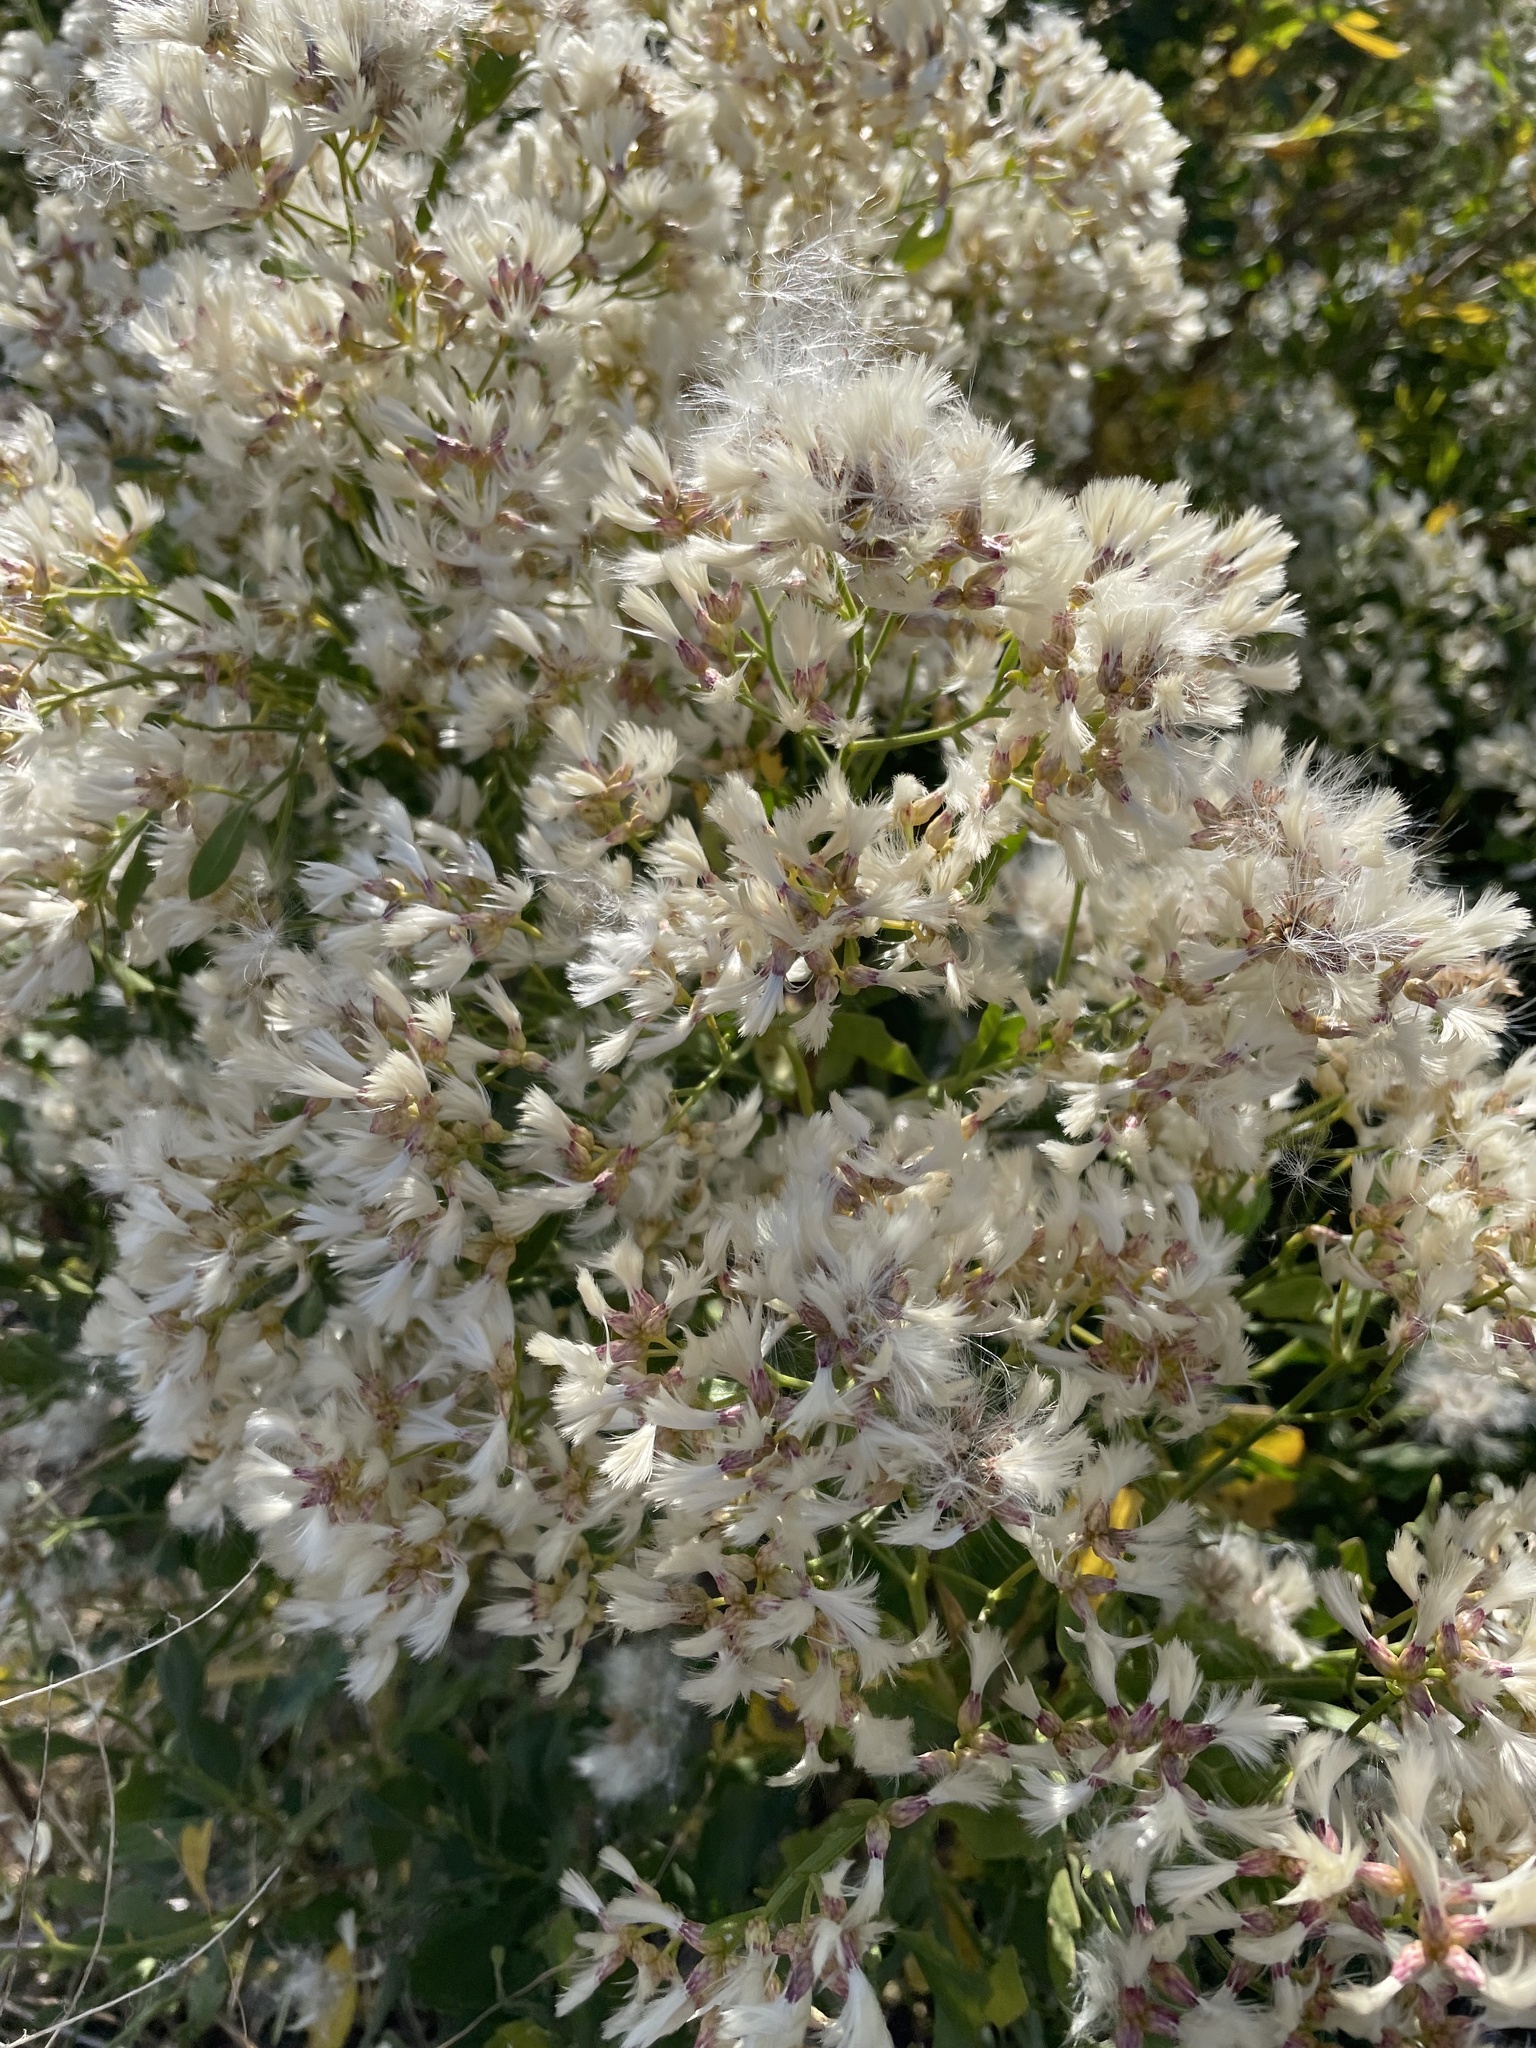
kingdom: Plantae
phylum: Tracheophyta
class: Magnoliopsida
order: Asterales
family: Asteraceae
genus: Baccharis
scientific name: Baccharis halimifolia
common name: Eastern baccharis
